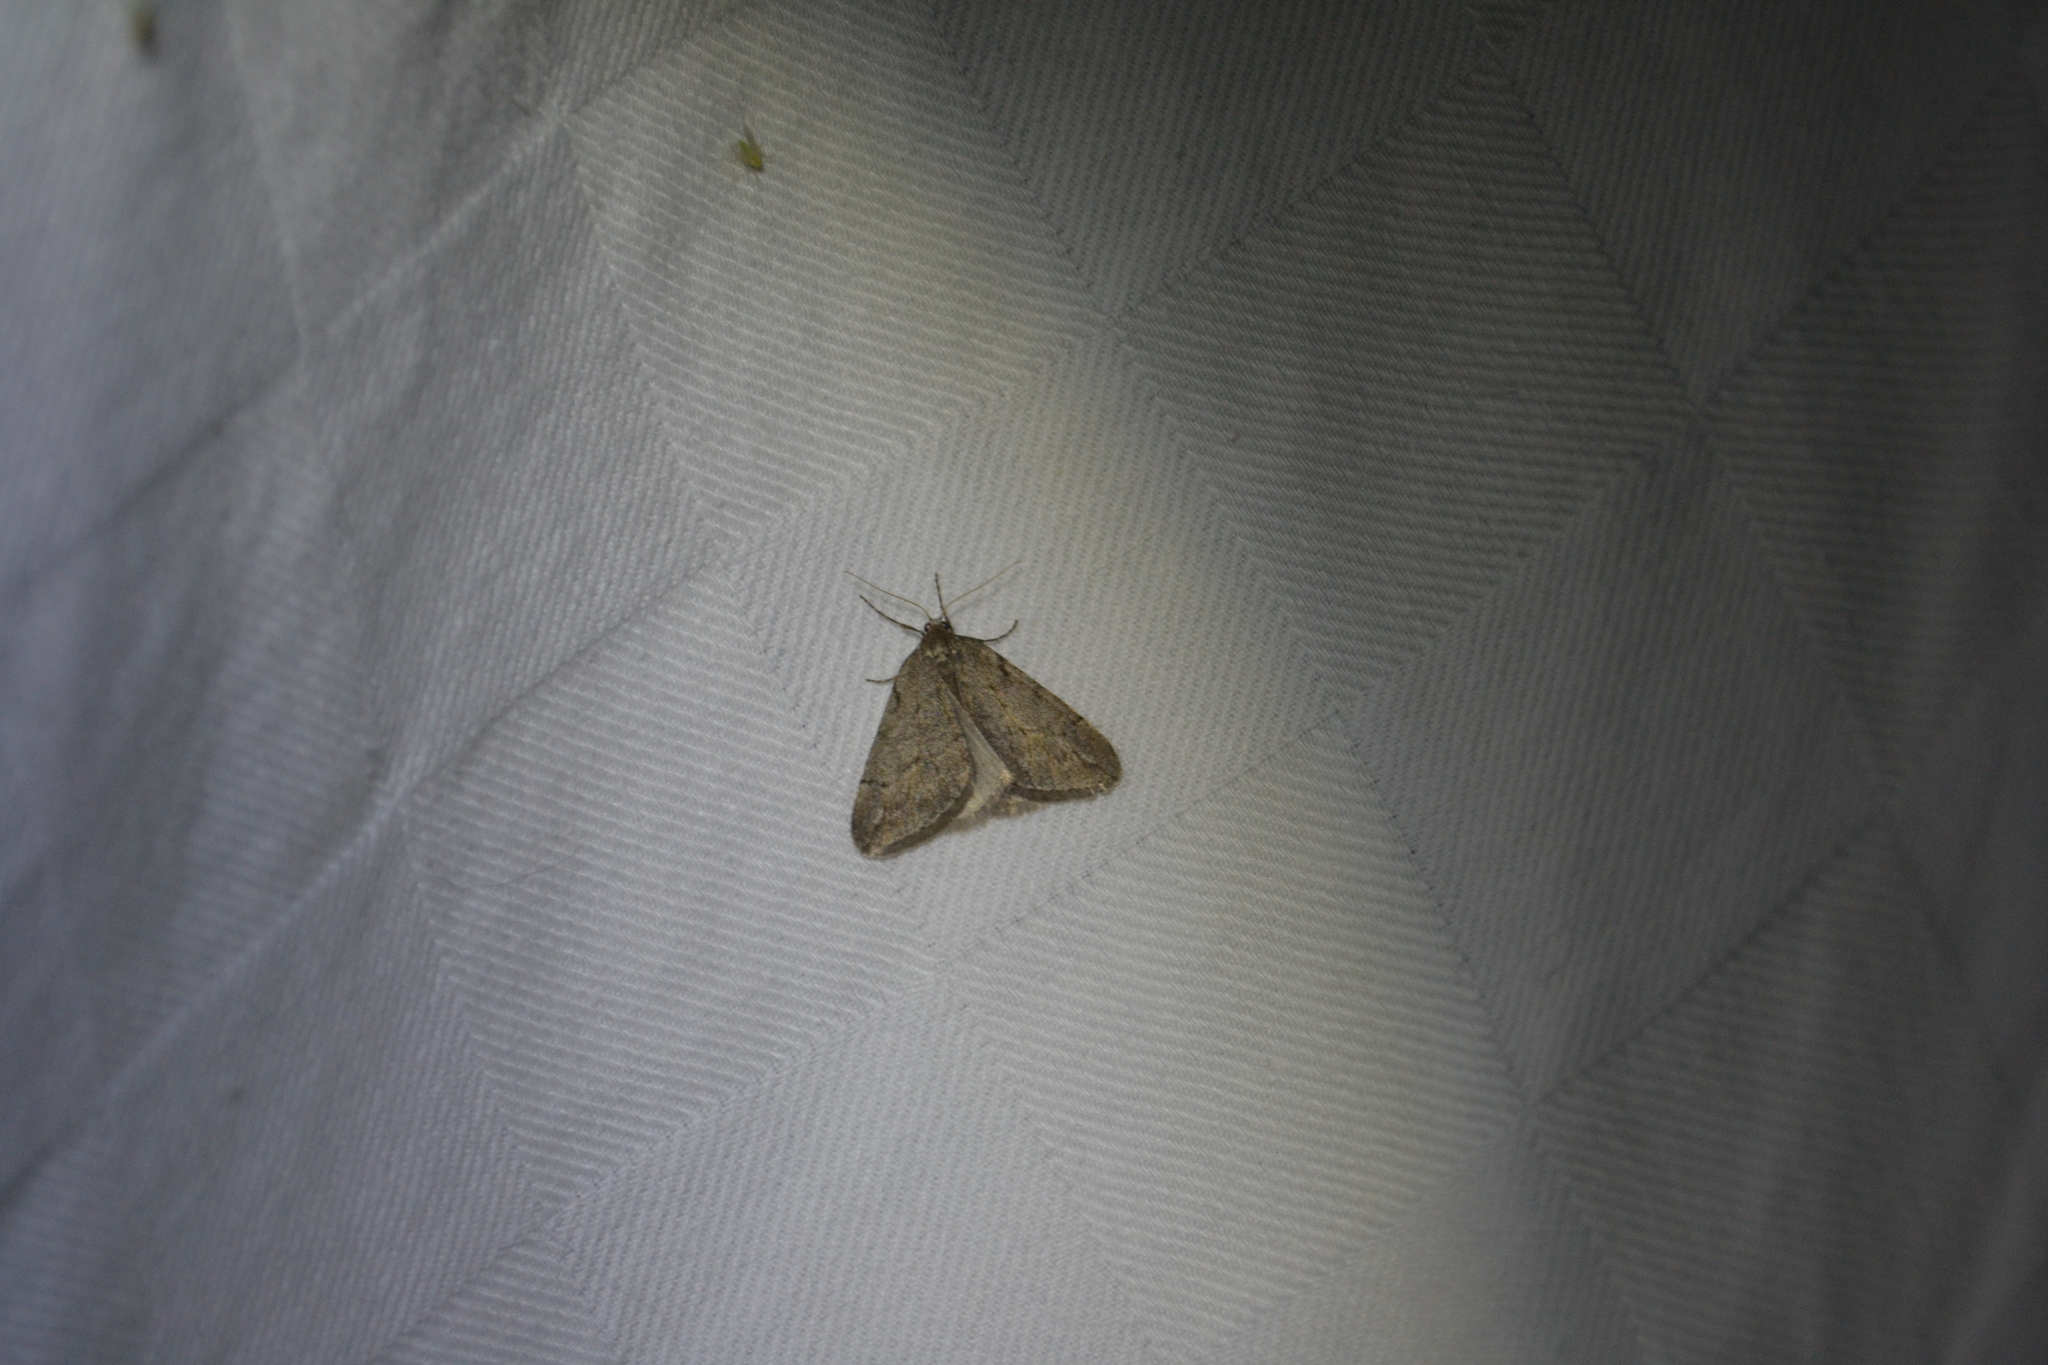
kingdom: Animalia
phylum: Arthropoda
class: Insecta
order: Lepidoptera
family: Geometridae
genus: Paleacrita
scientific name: Paleacrita vernata
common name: Spring cankerworm
